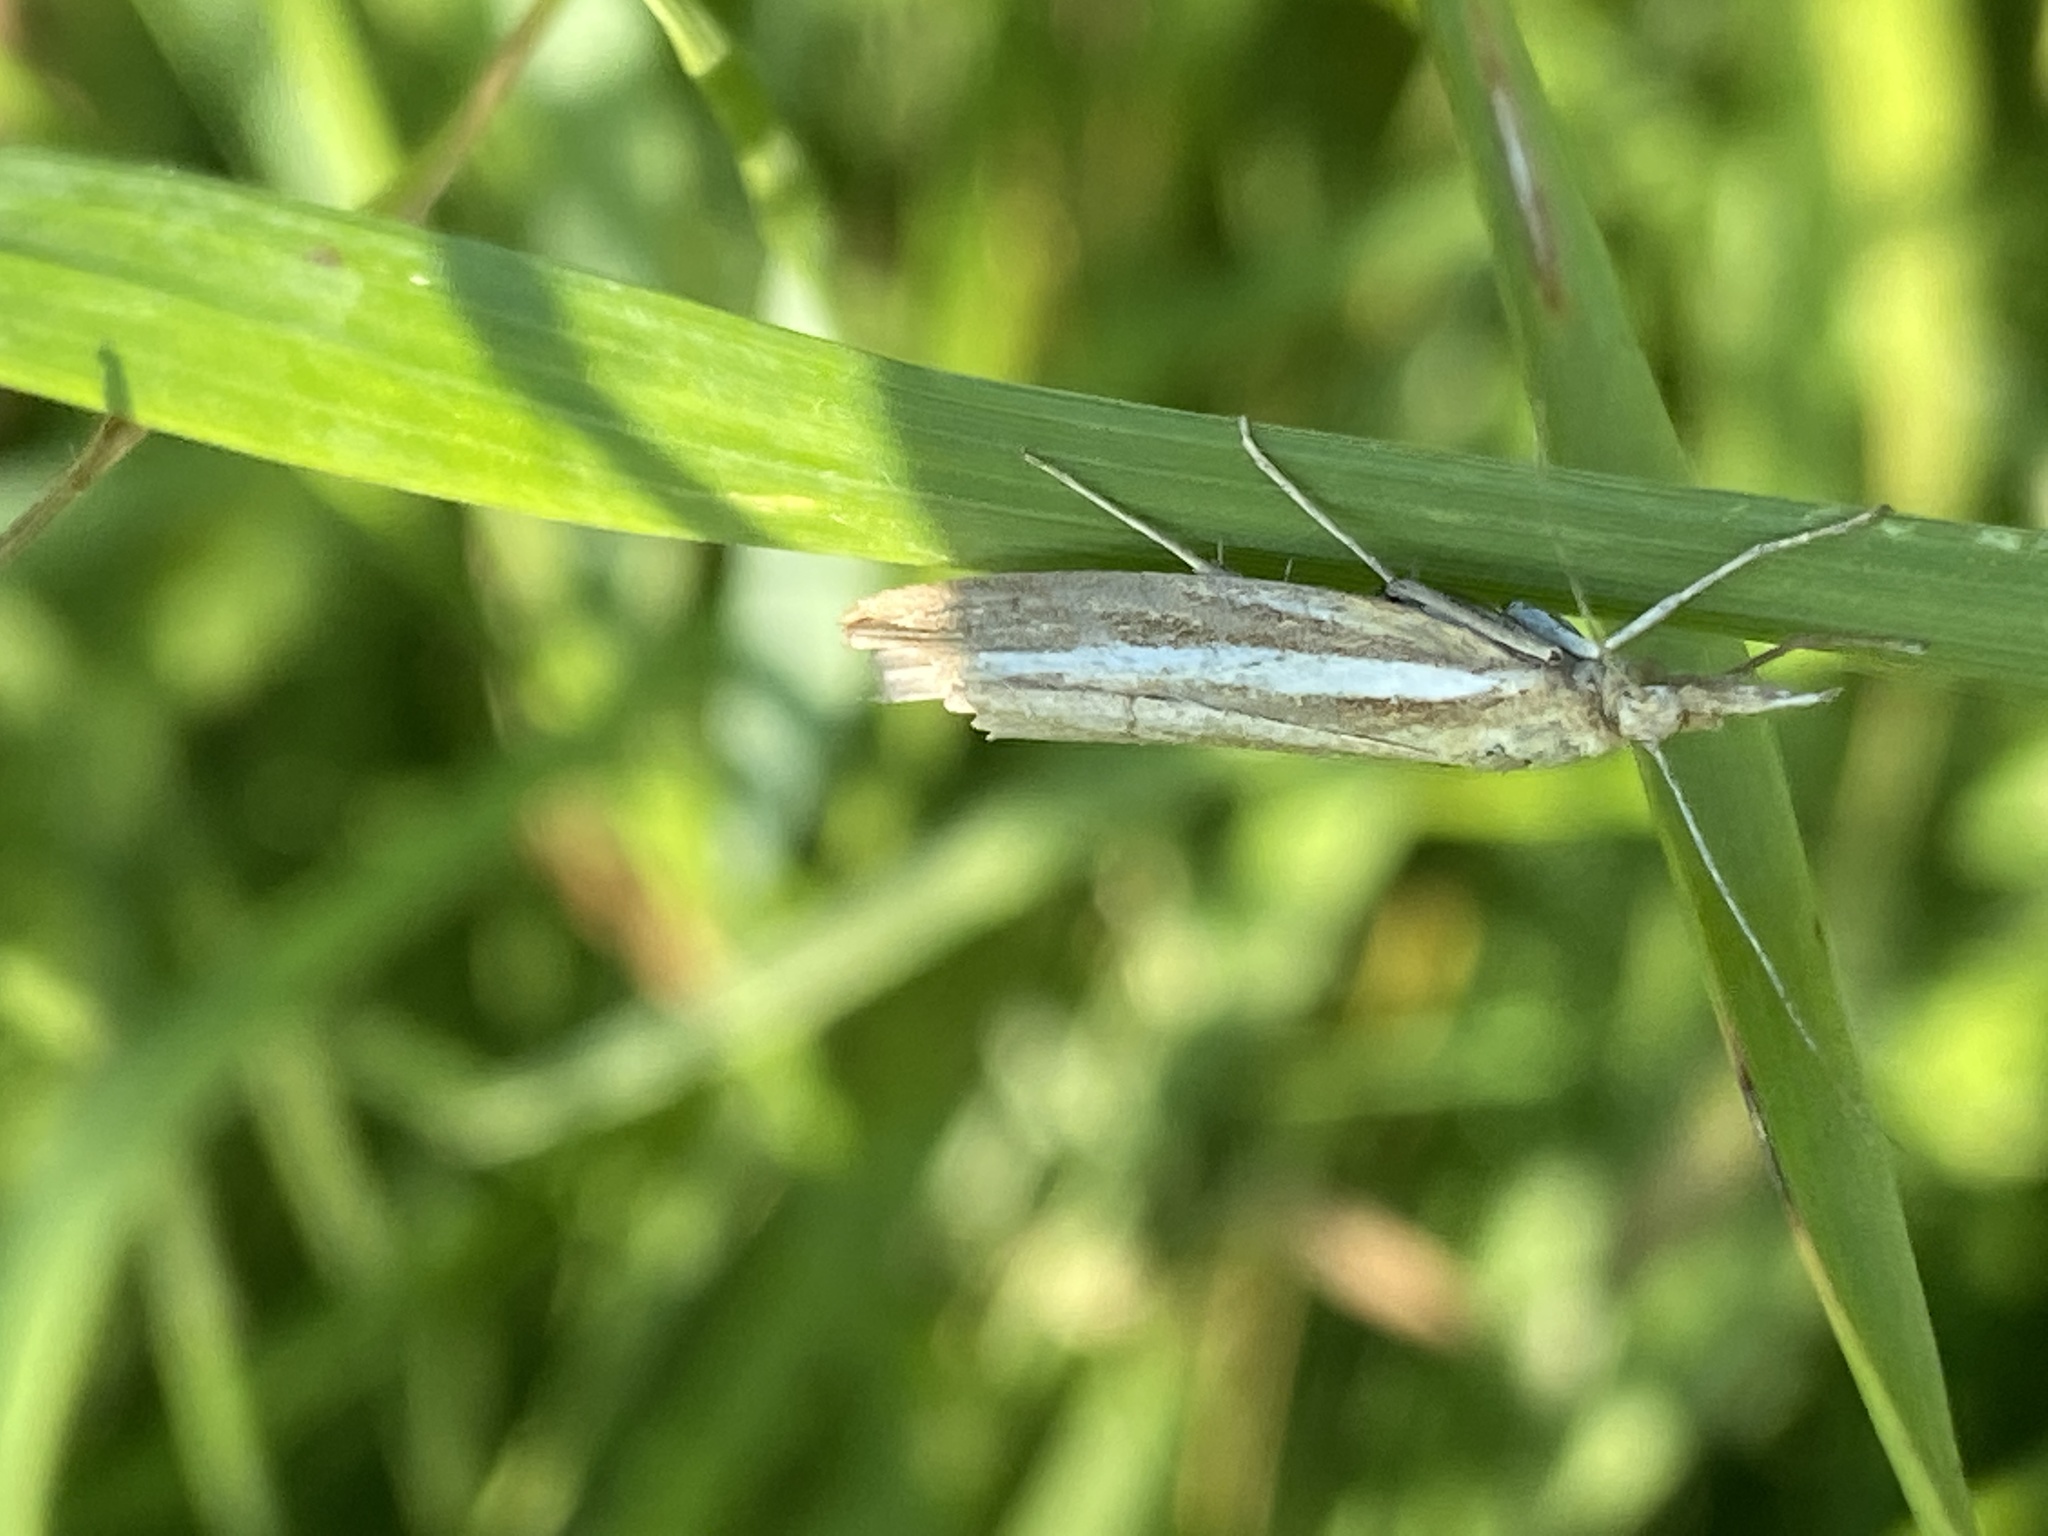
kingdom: Animalia
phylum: Arthropoda
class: Insecta
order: Lepidoptera
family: Crambidae
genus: Agriphila
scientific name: Agriphila tristellus
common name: Common grass-veneer
